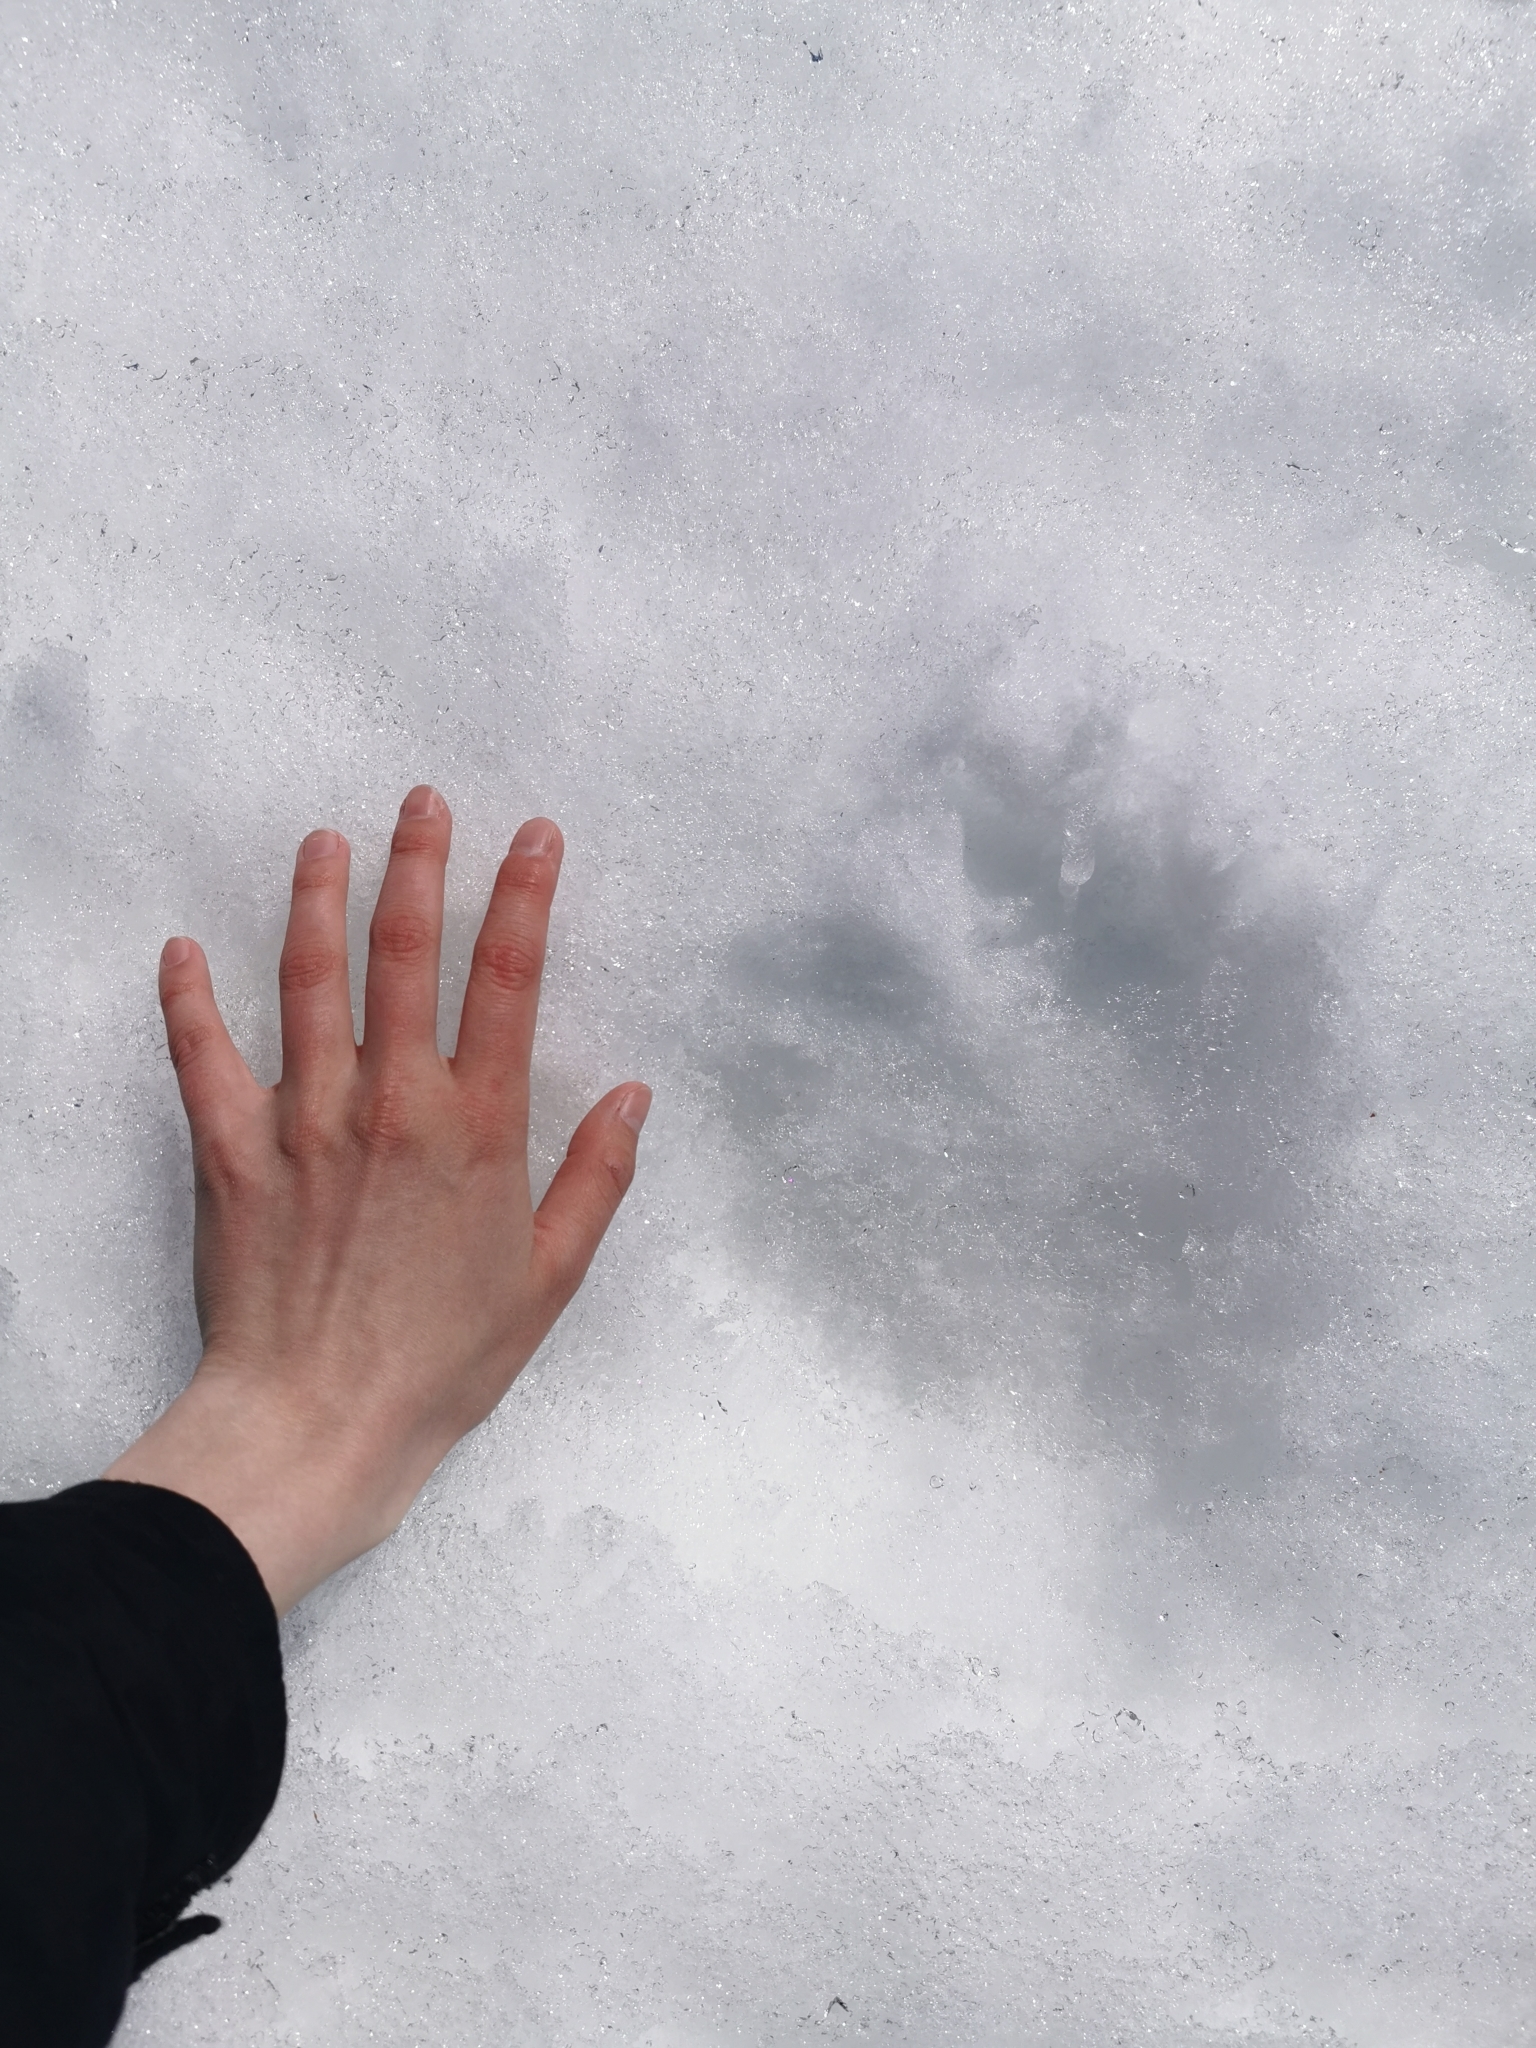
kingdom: Animalia
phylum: Chordata
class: Mammalia
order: Carnivora
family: Ursidae
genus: Ursus
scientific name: Ursus arctos
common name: Brown bear
